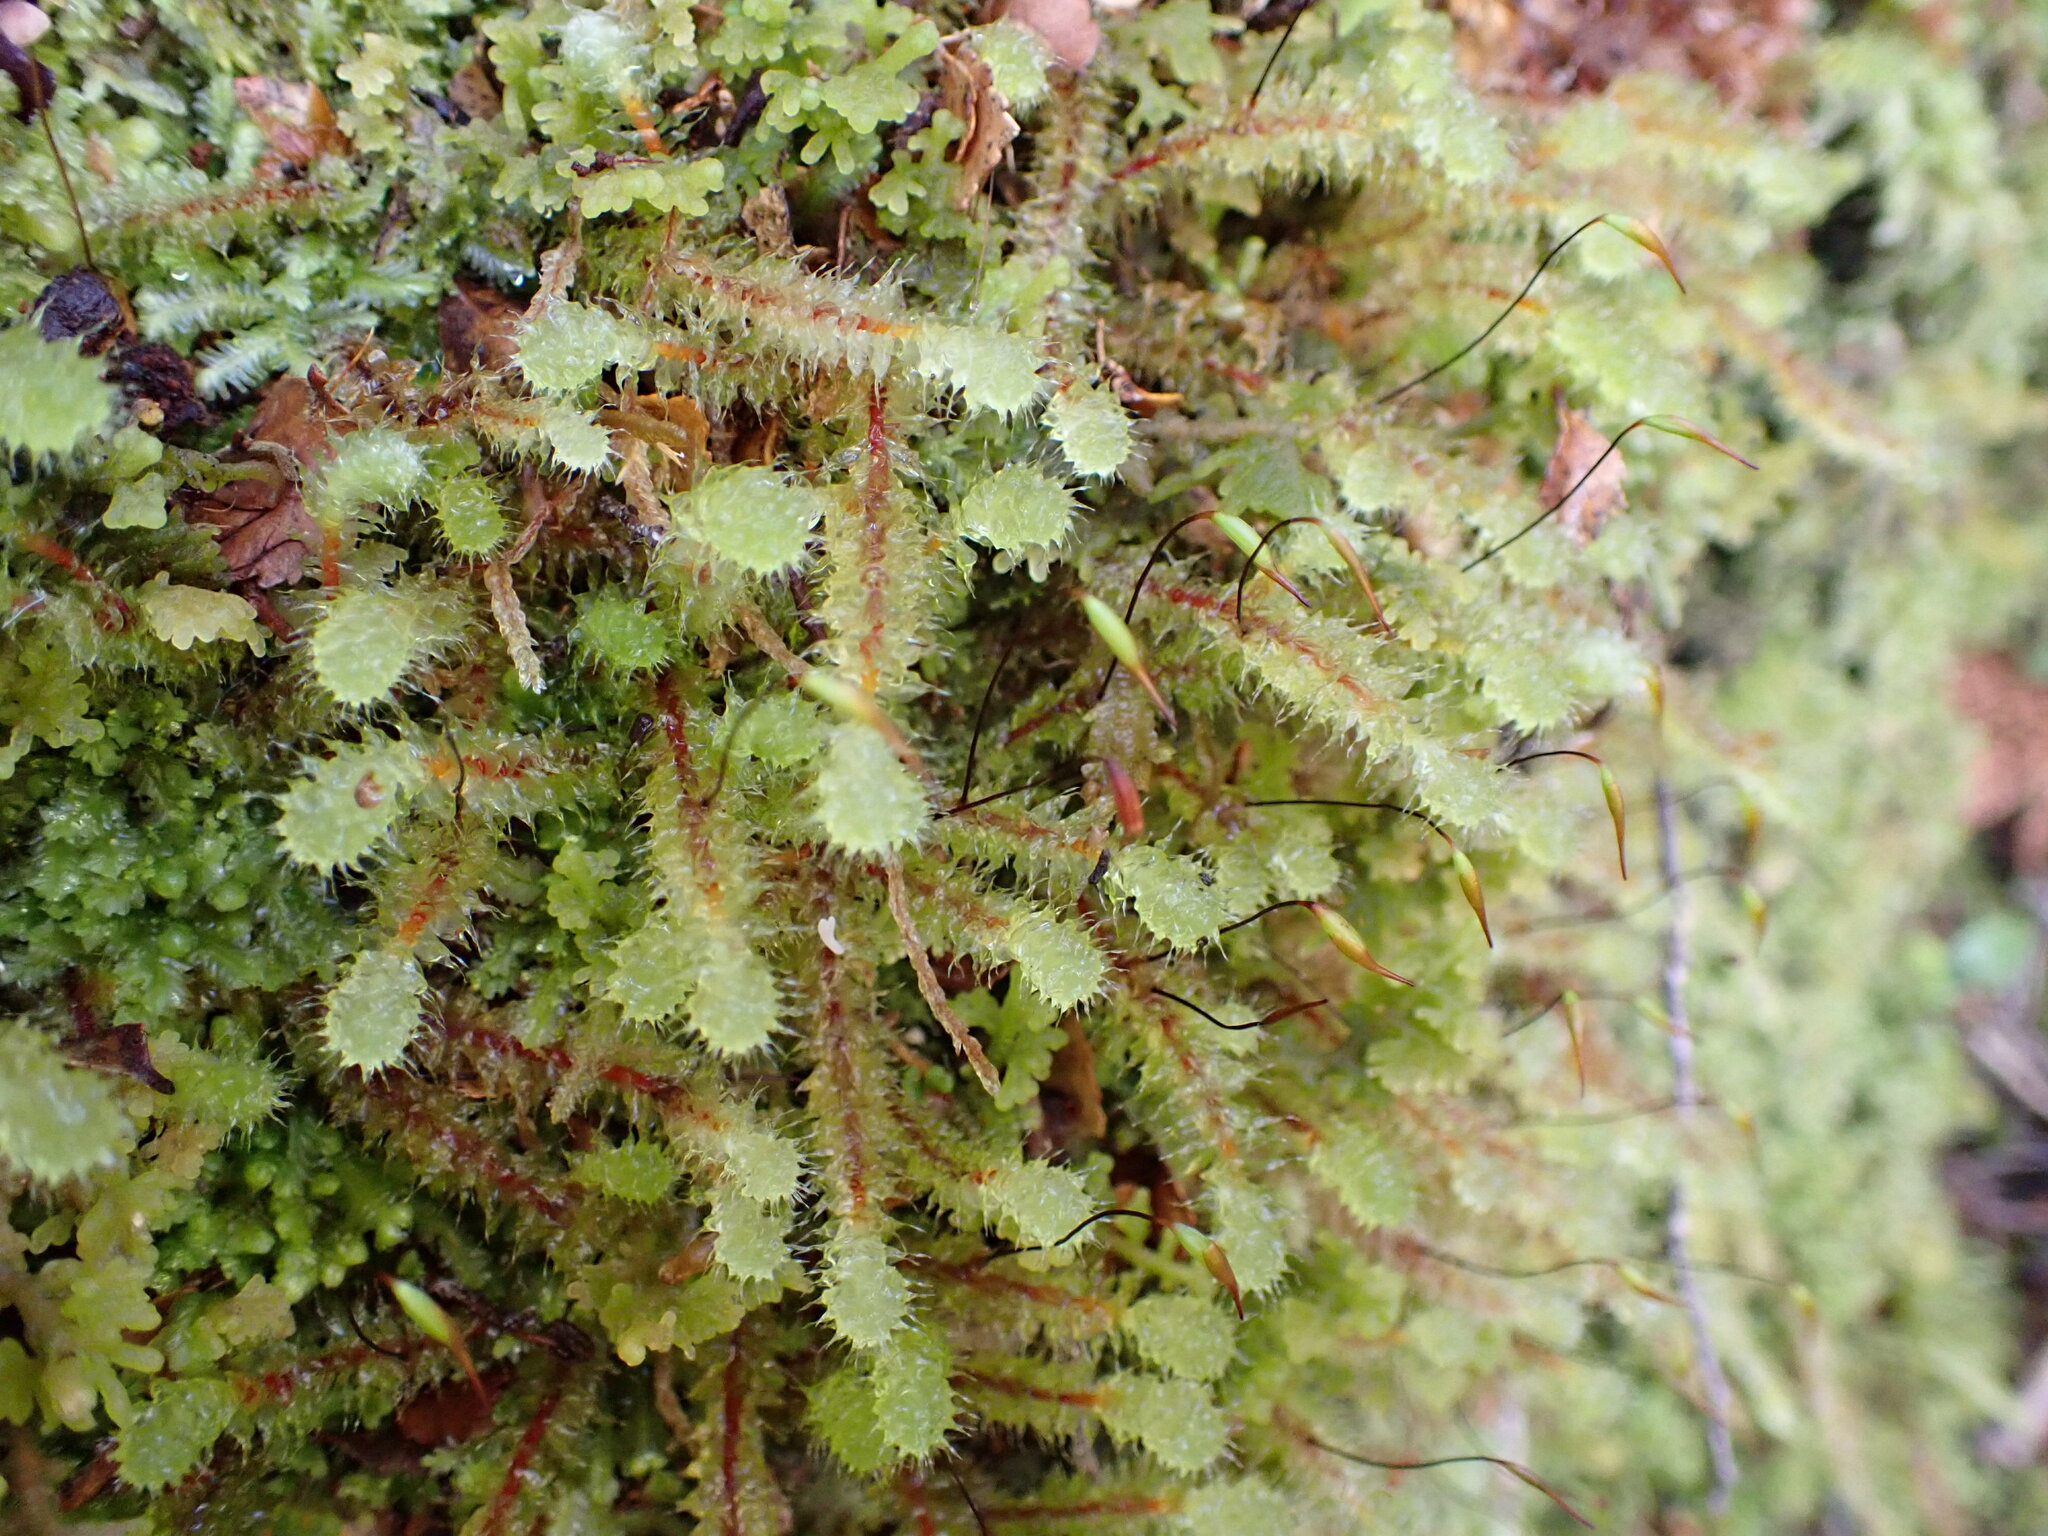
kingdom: Plantae
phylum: Bryophyta
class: Bryopsida
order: Ptychomniales
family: Ptychomniaceae
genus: Ptychomnion
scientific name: Ptychomnion aciculare
